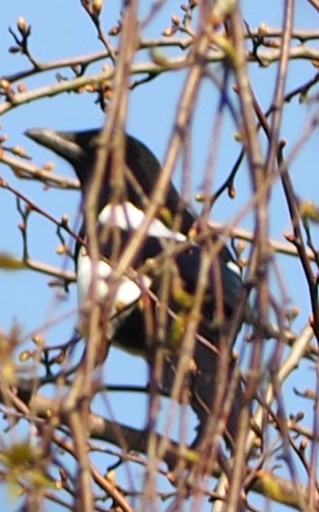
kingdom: Animalia
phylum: Chordata
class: Aves
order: Passeriformes
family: Corvidae
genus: Pica
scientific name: Pica pica
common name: Eurasian magpie
